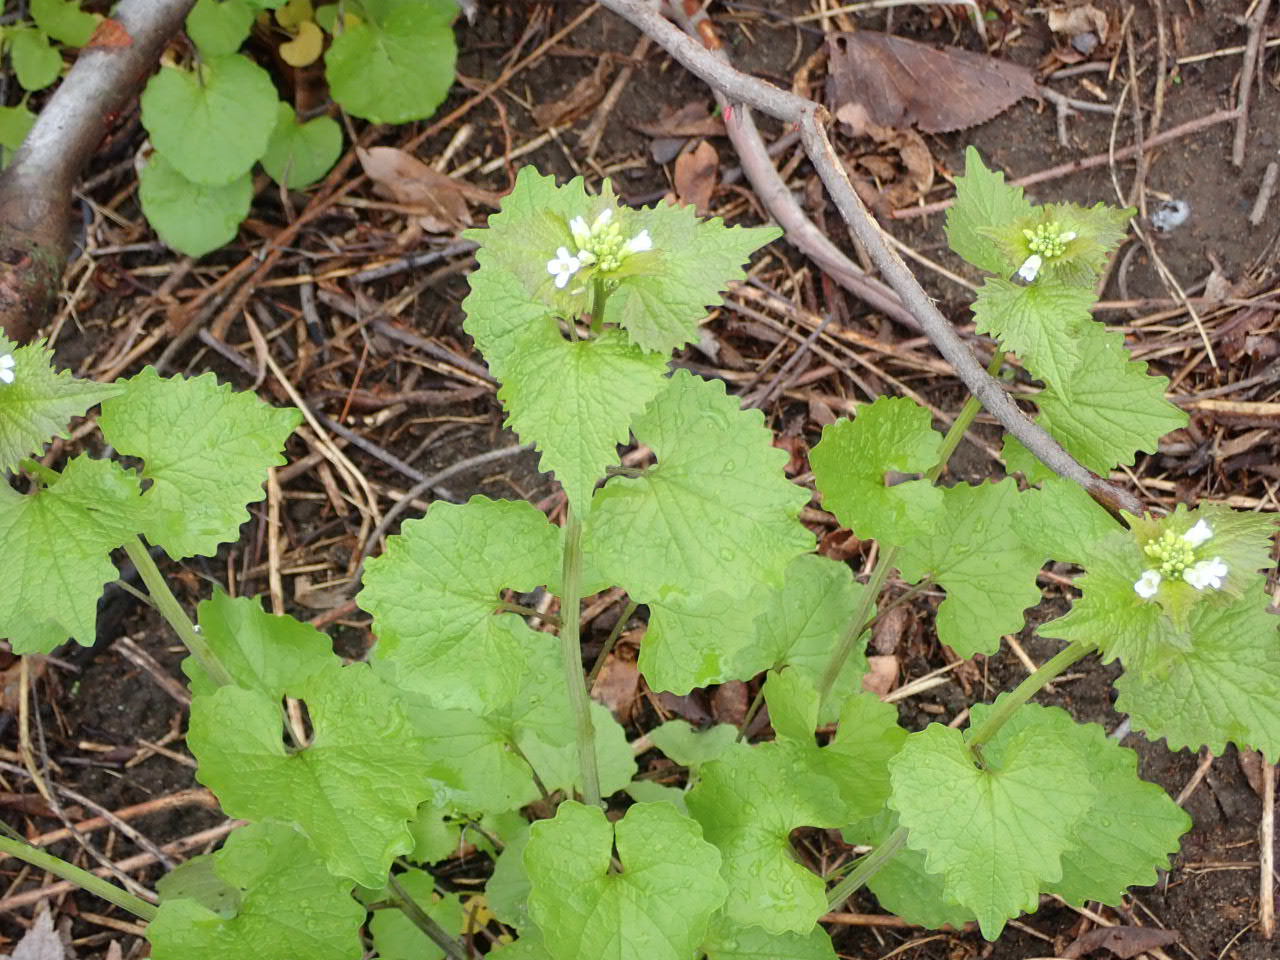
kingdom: Plantae
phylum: Tracheophyta
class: Magnoliopsida
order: Brassicales
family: Brassicaceae
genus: Alliaria
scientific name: Alliaria petiolata
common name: Garlic mustard
